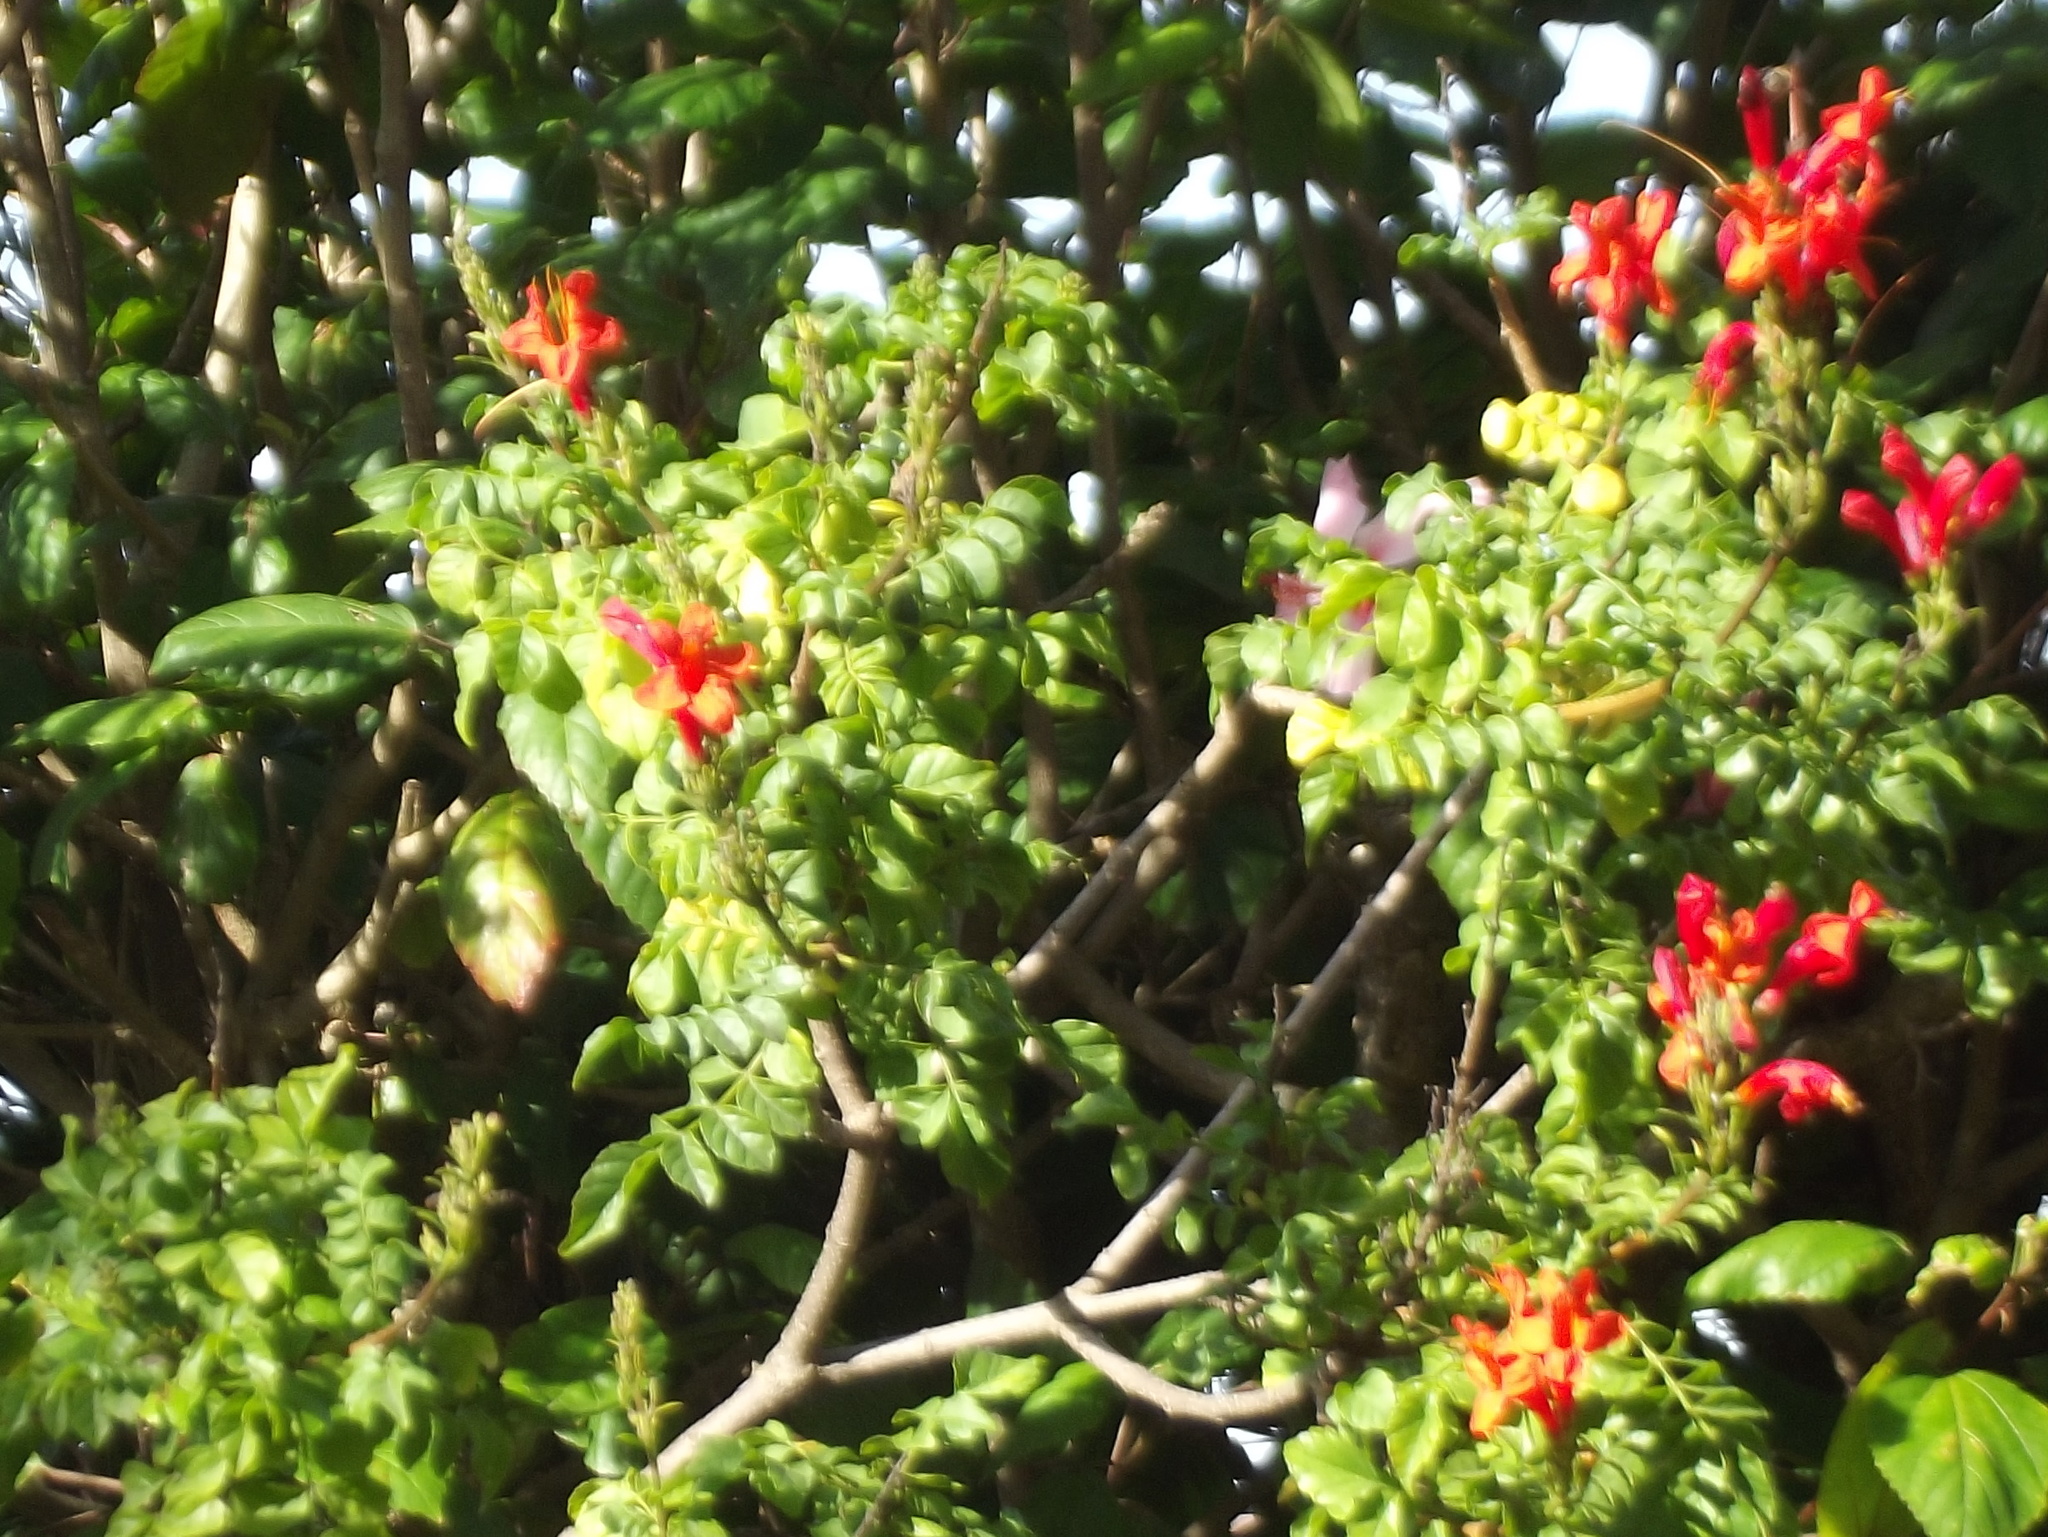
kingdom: Plantae
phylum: Tracheophyta
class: Magnoliopsida
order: Lamiales
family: Bignoniaceae
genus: Tecomaria
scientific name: Tecomaria capensis
